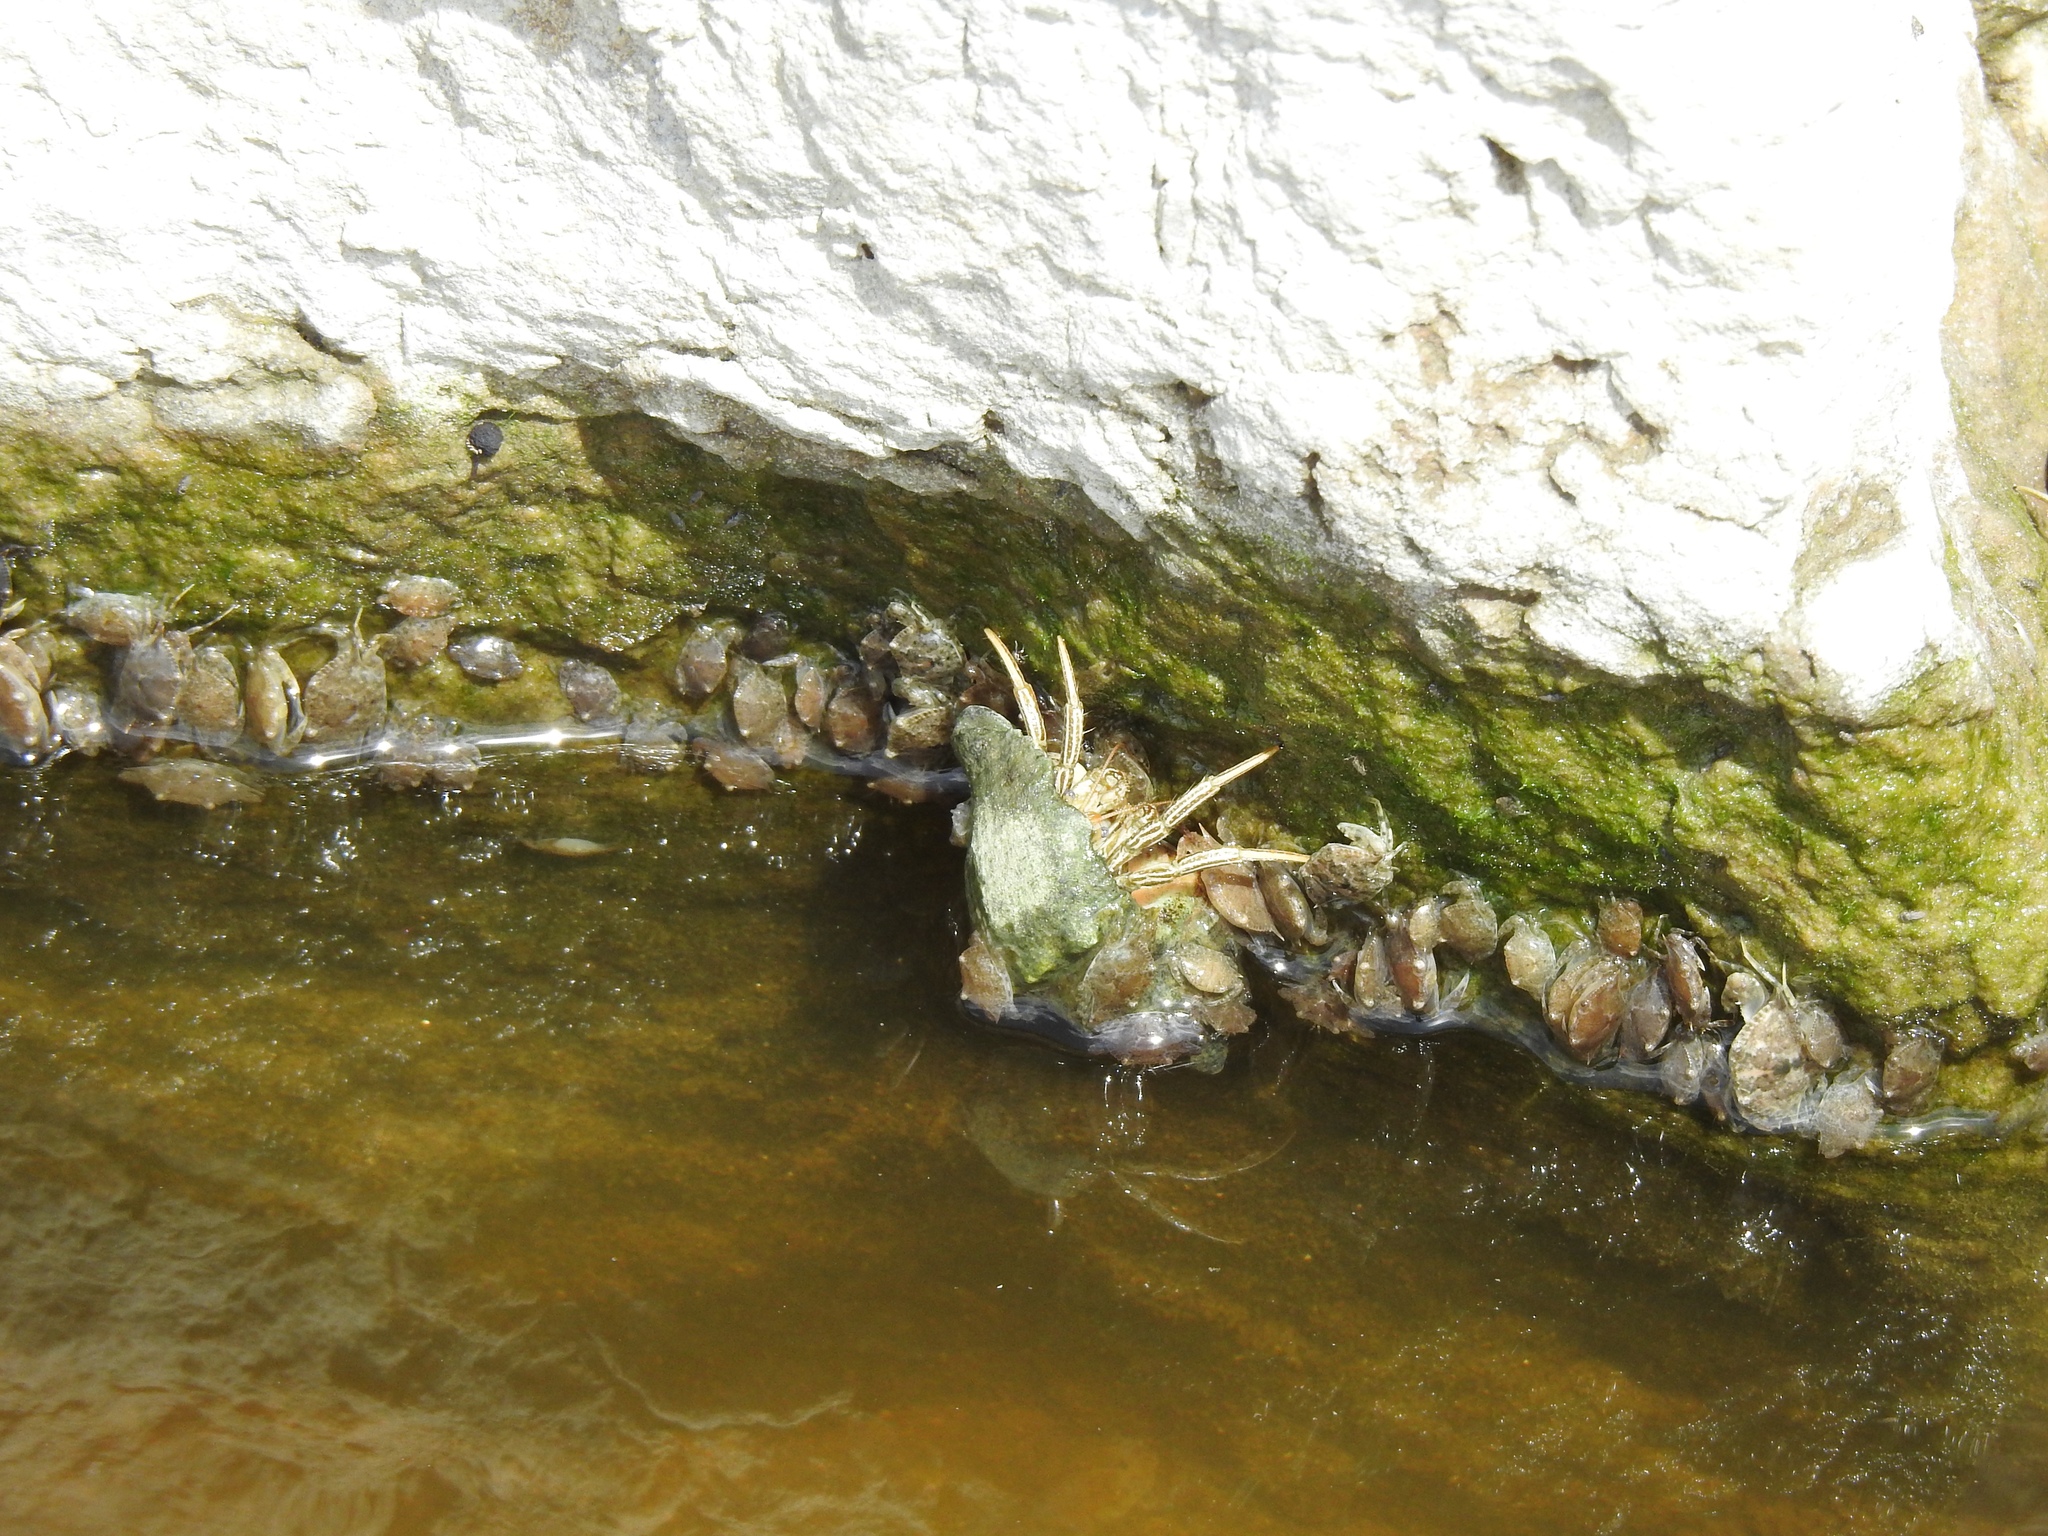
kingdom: Animalia
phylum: Arthropoda
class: Malacostraca
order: Decapoda
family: Diogenidae
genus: Clibanarius
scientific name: Clibanarius vittatus
